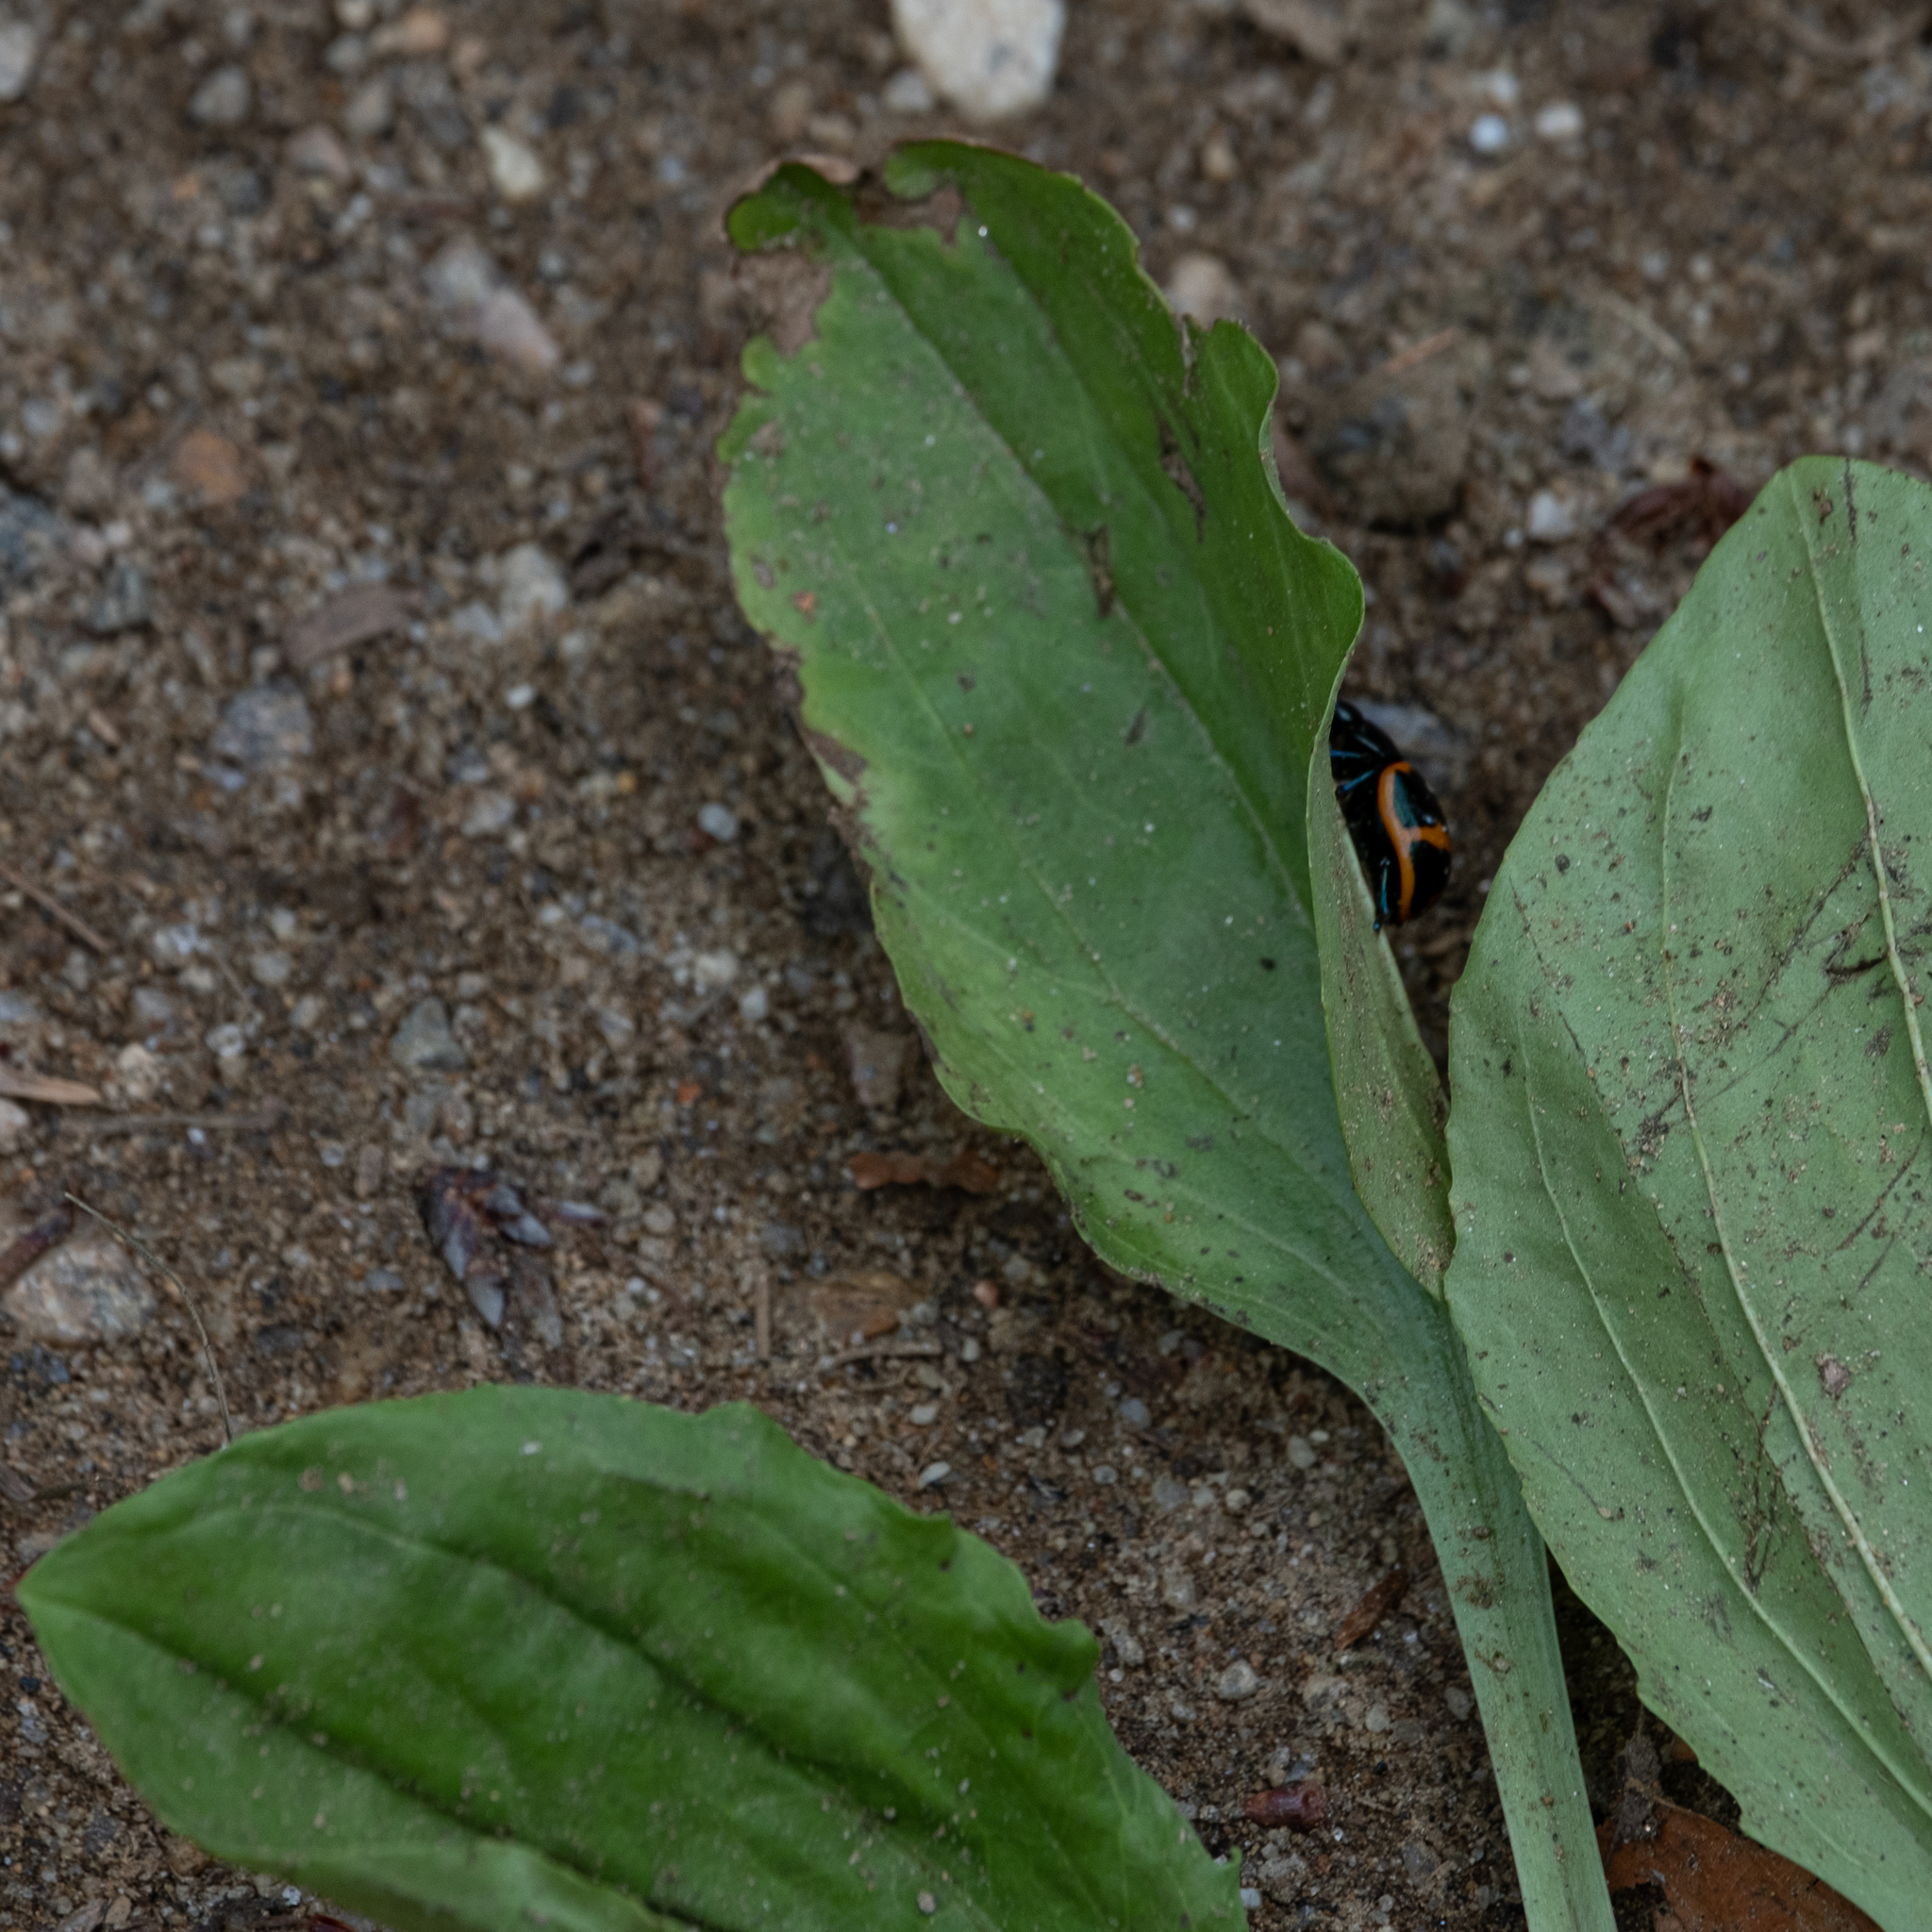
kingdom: Animalia
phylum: Arthropoda
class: Insecta
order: Coleoptera
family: Chrysomelidae
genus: Labidomera
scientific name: Labidomera clivicollis
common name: Swamp milkweed leaf beetle
